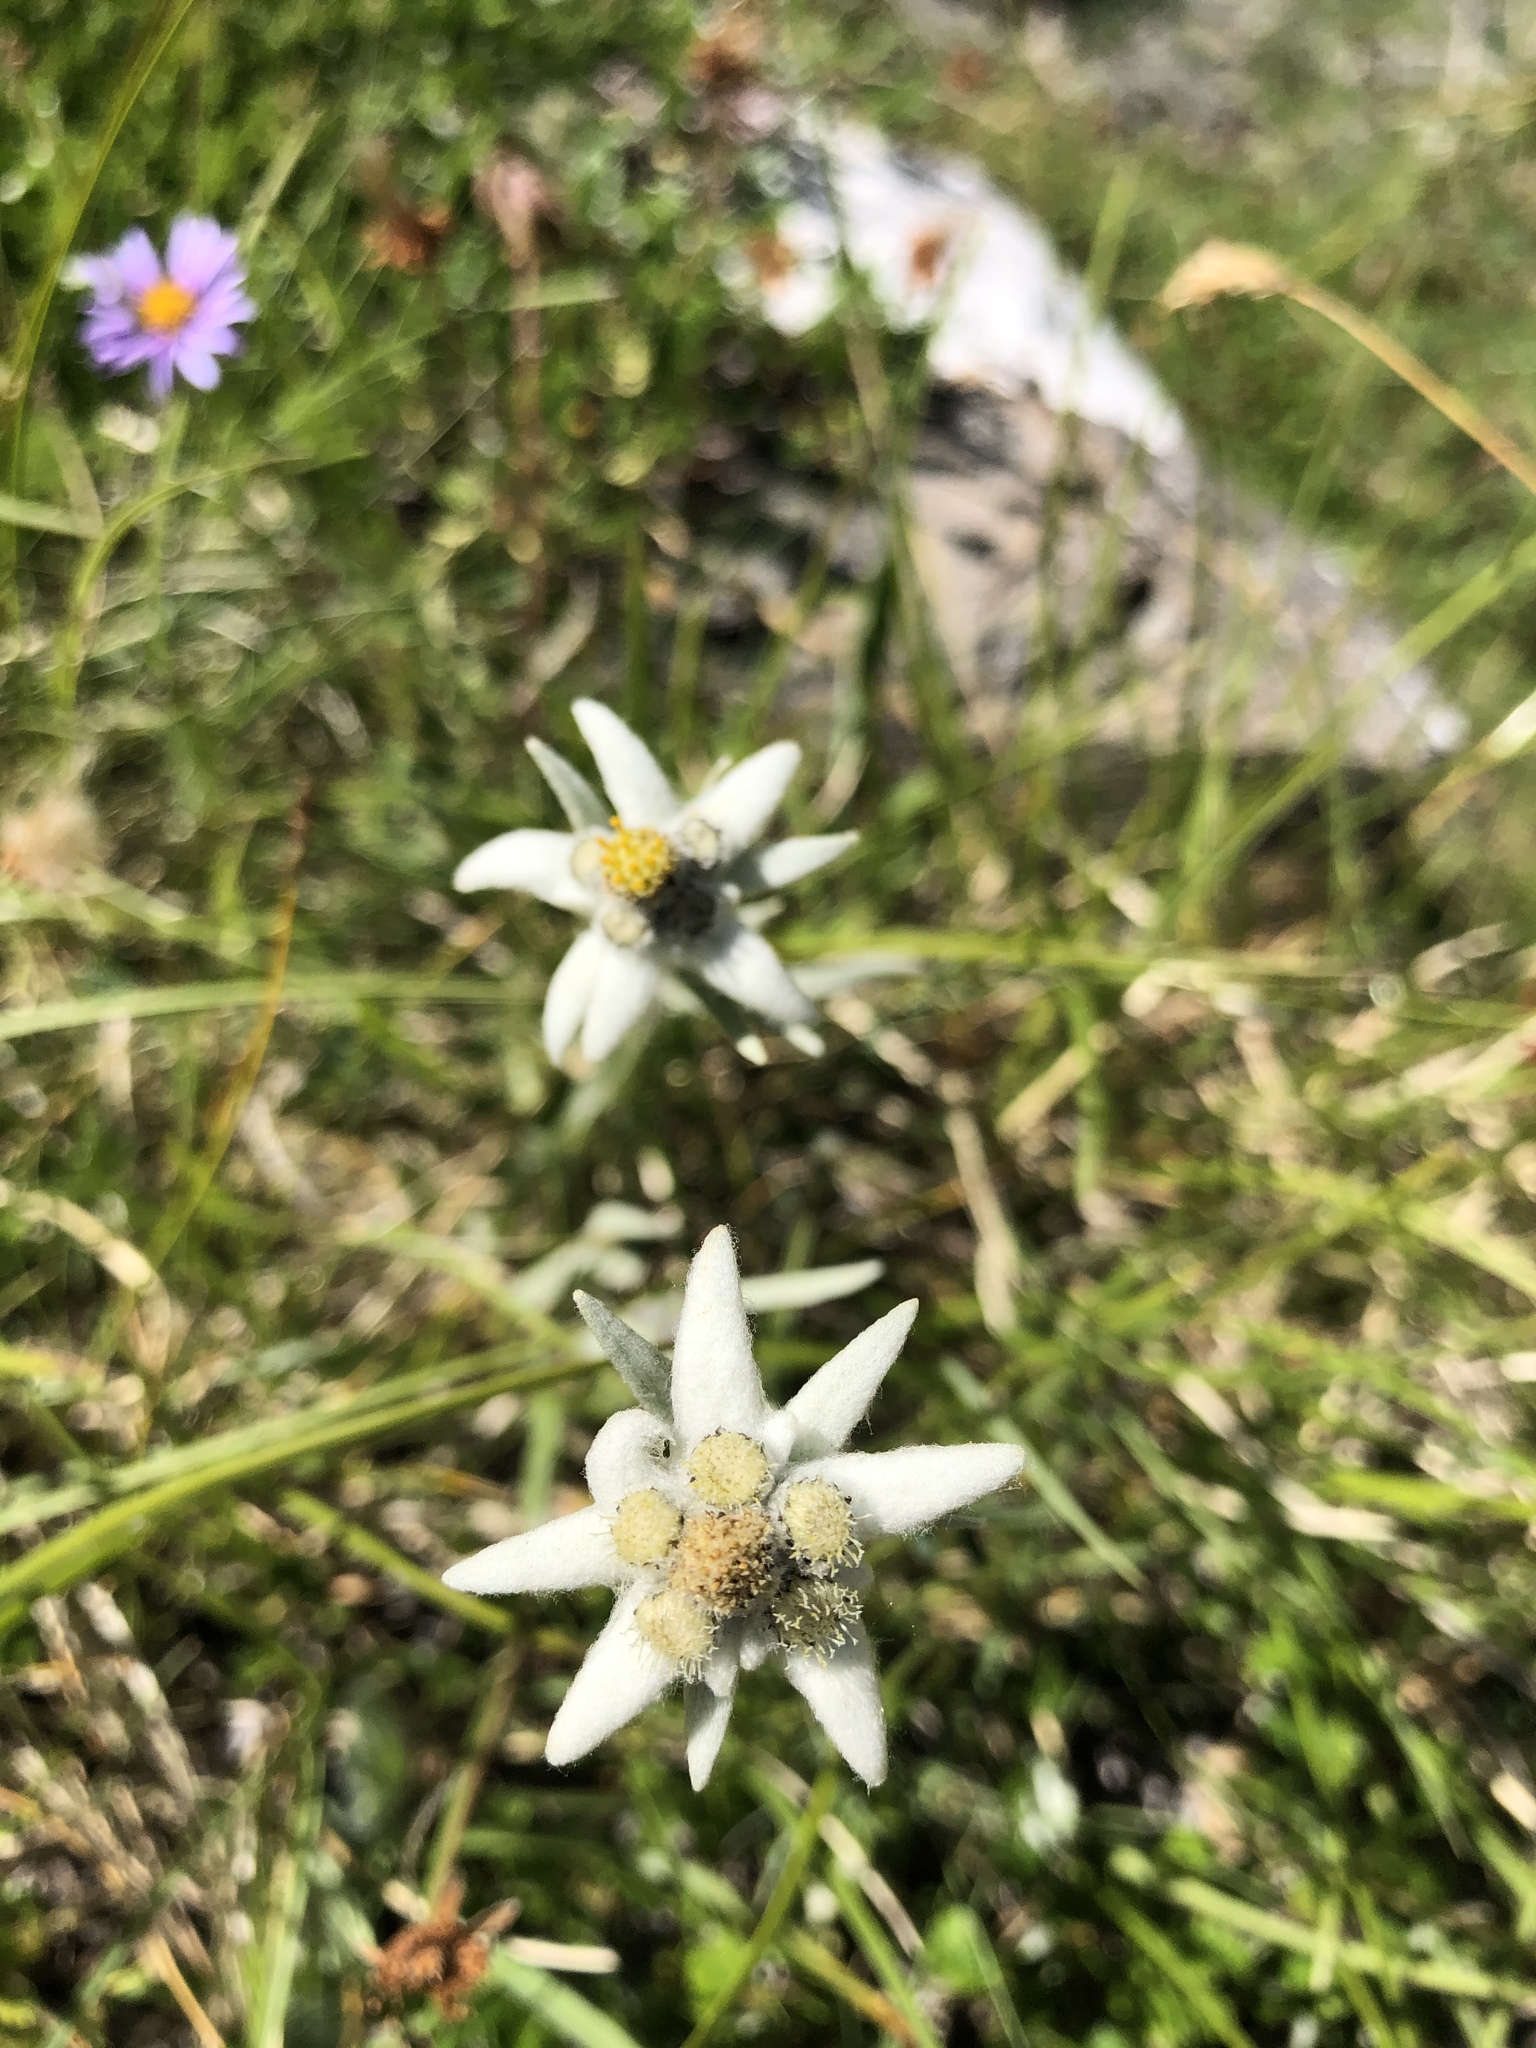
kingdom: Plantae
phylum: Tracheophyta
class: Magnoliopsida
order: Asterales
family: Asteraceae
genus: Leontopodium
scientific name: Leontopodium nivale
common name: Edelweiss
